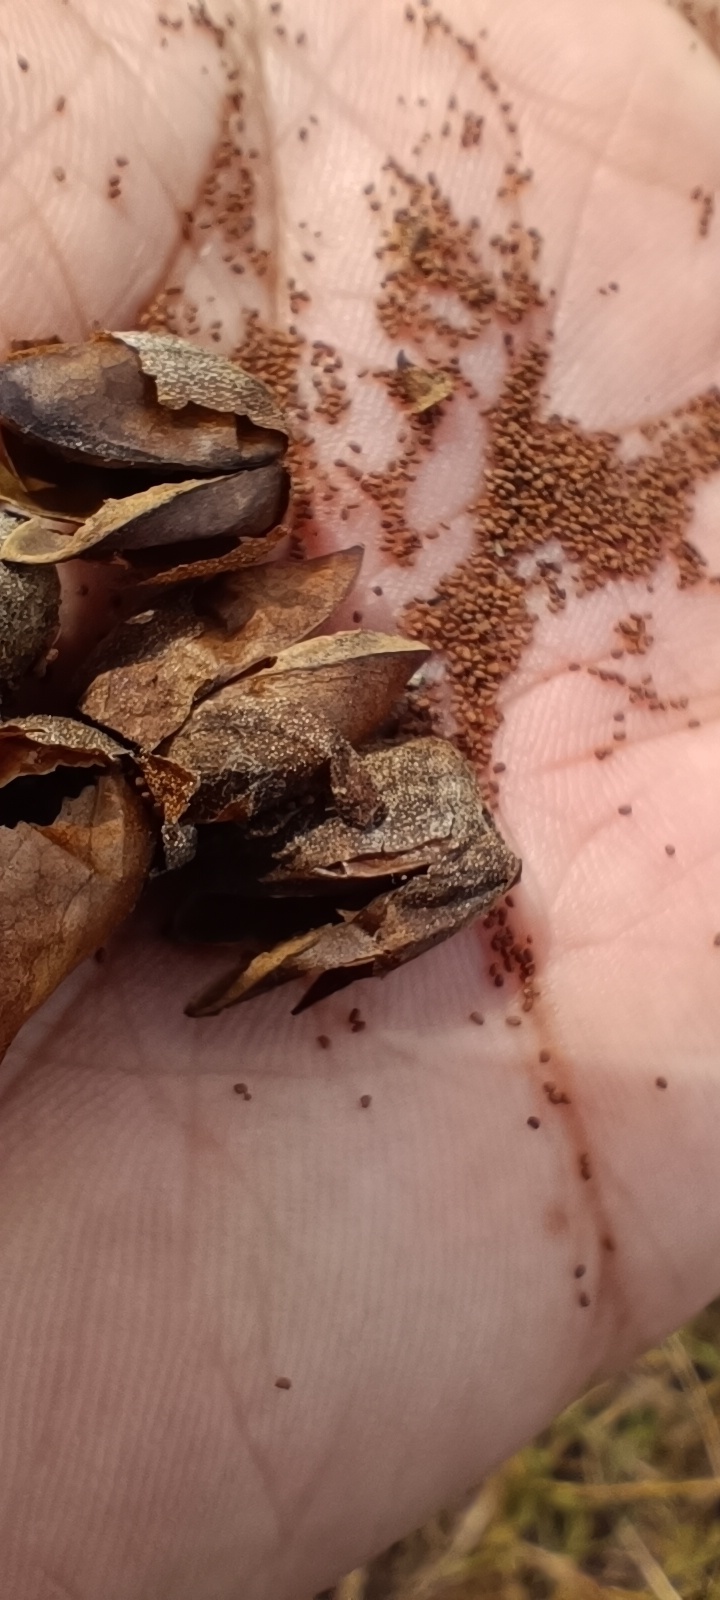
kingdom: Plantae
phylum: Tracheophyta
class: Magnoliopsida
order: Solanales
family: Solanaceae
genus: Nicotiana
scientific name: Nicotiana tabacum
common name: Tobacco
